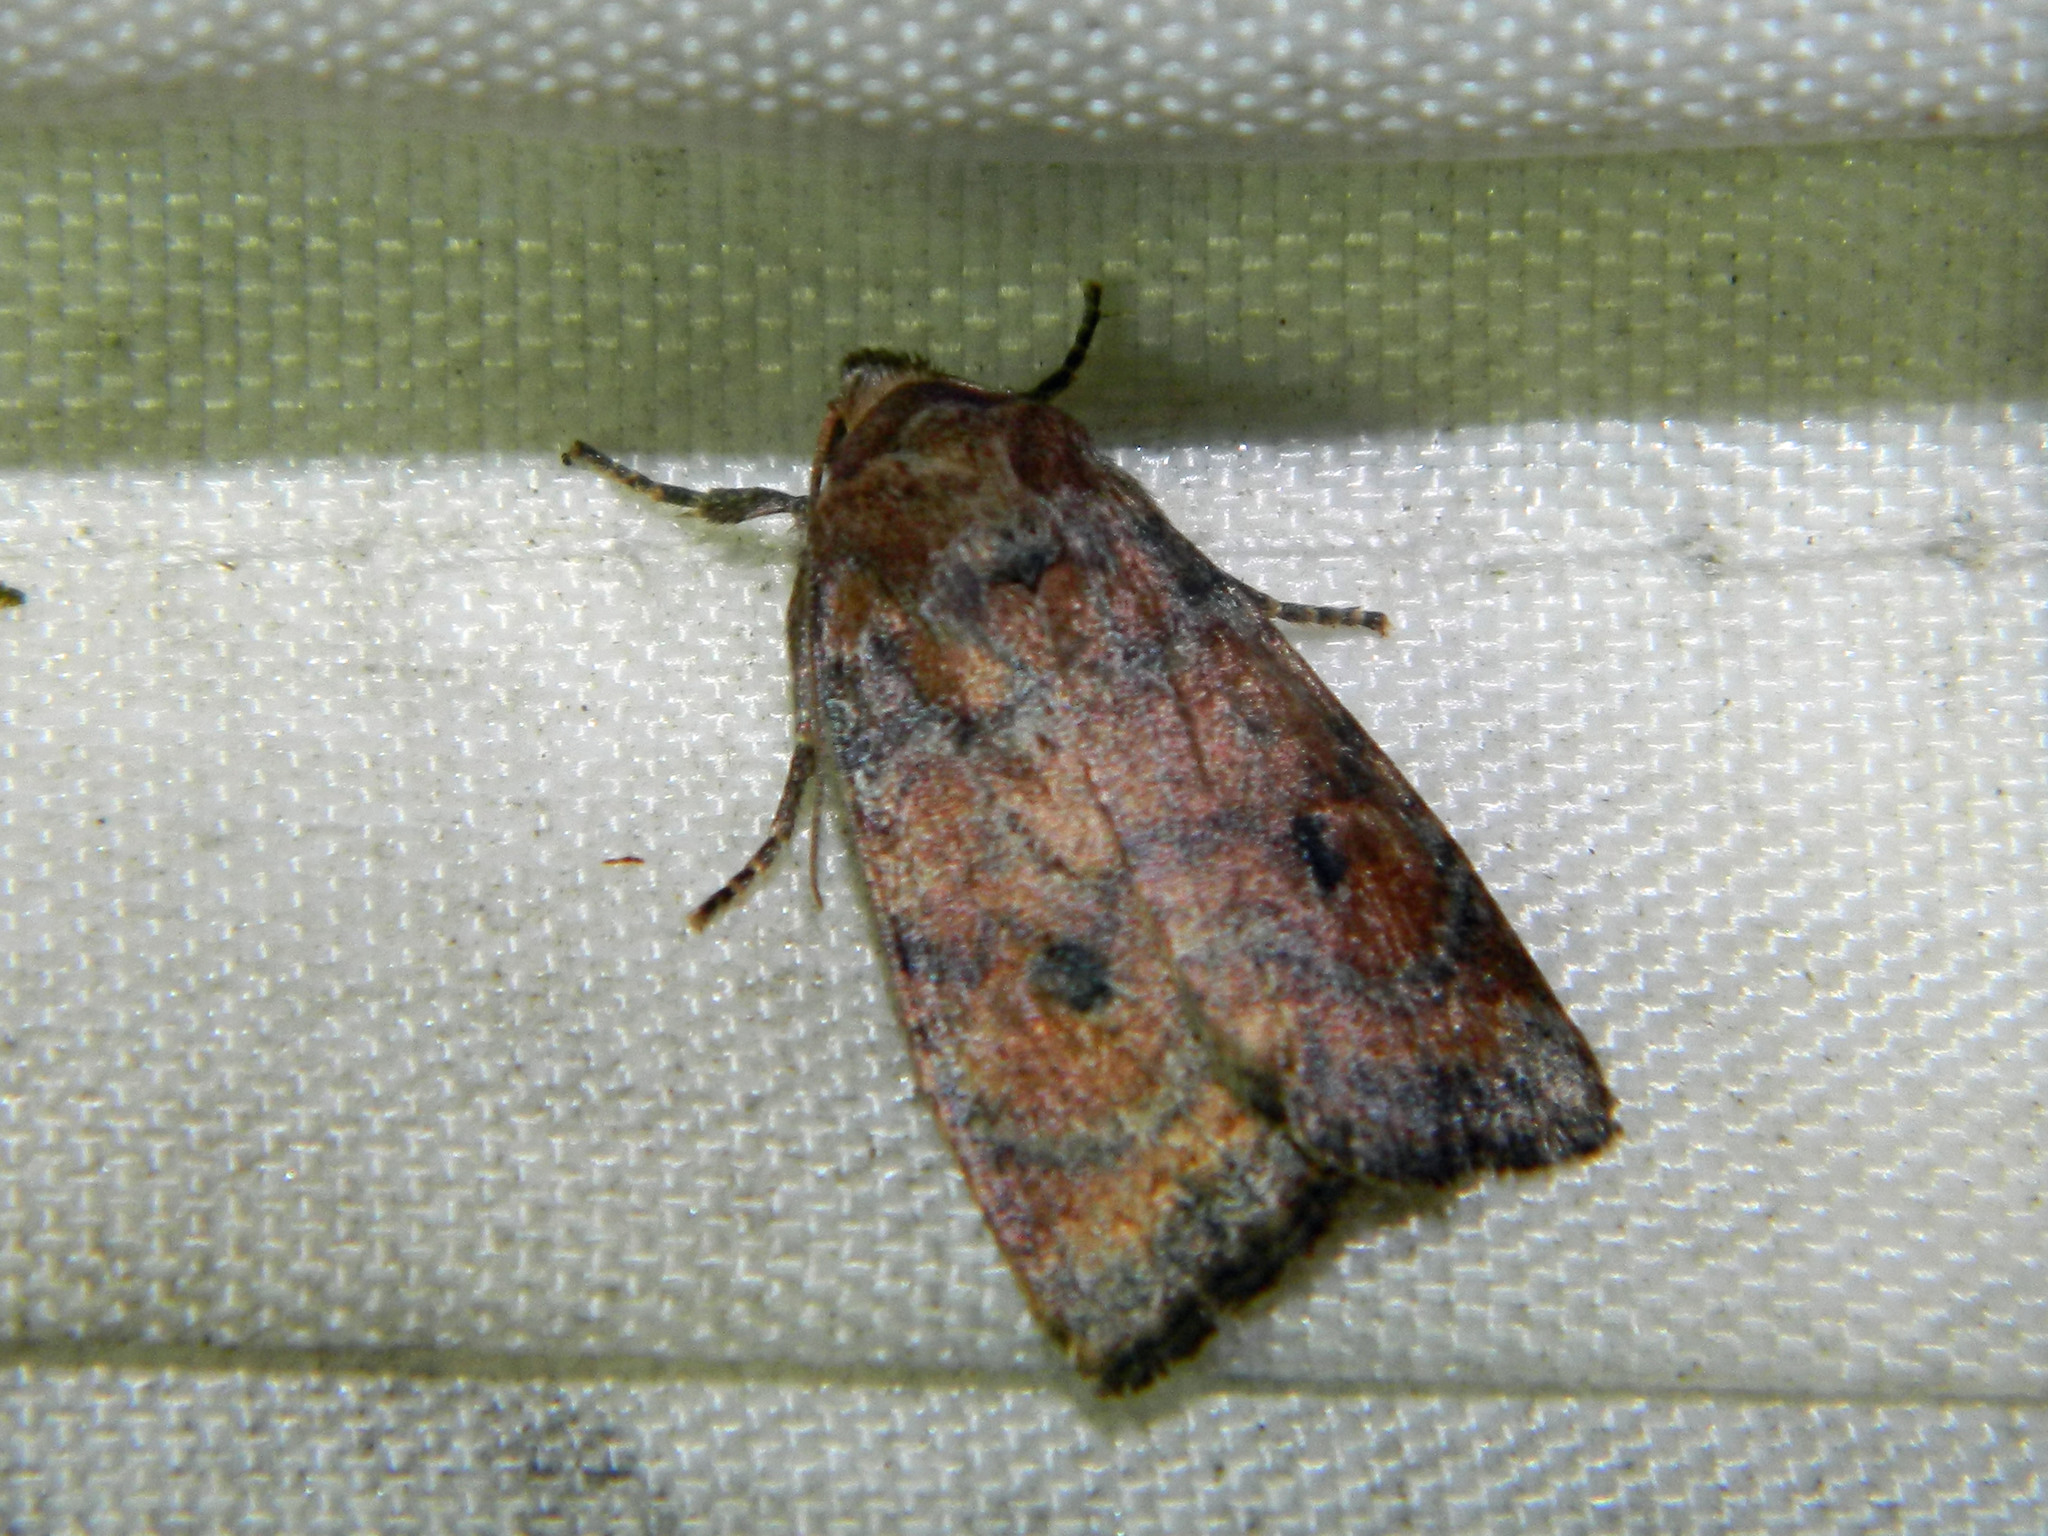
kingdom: Animalia
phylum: Arthropoda
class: Insecta
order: Lepidoptera
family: Noctuidae
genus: Anathix
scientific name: Anathix puta
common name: Puta sallow
